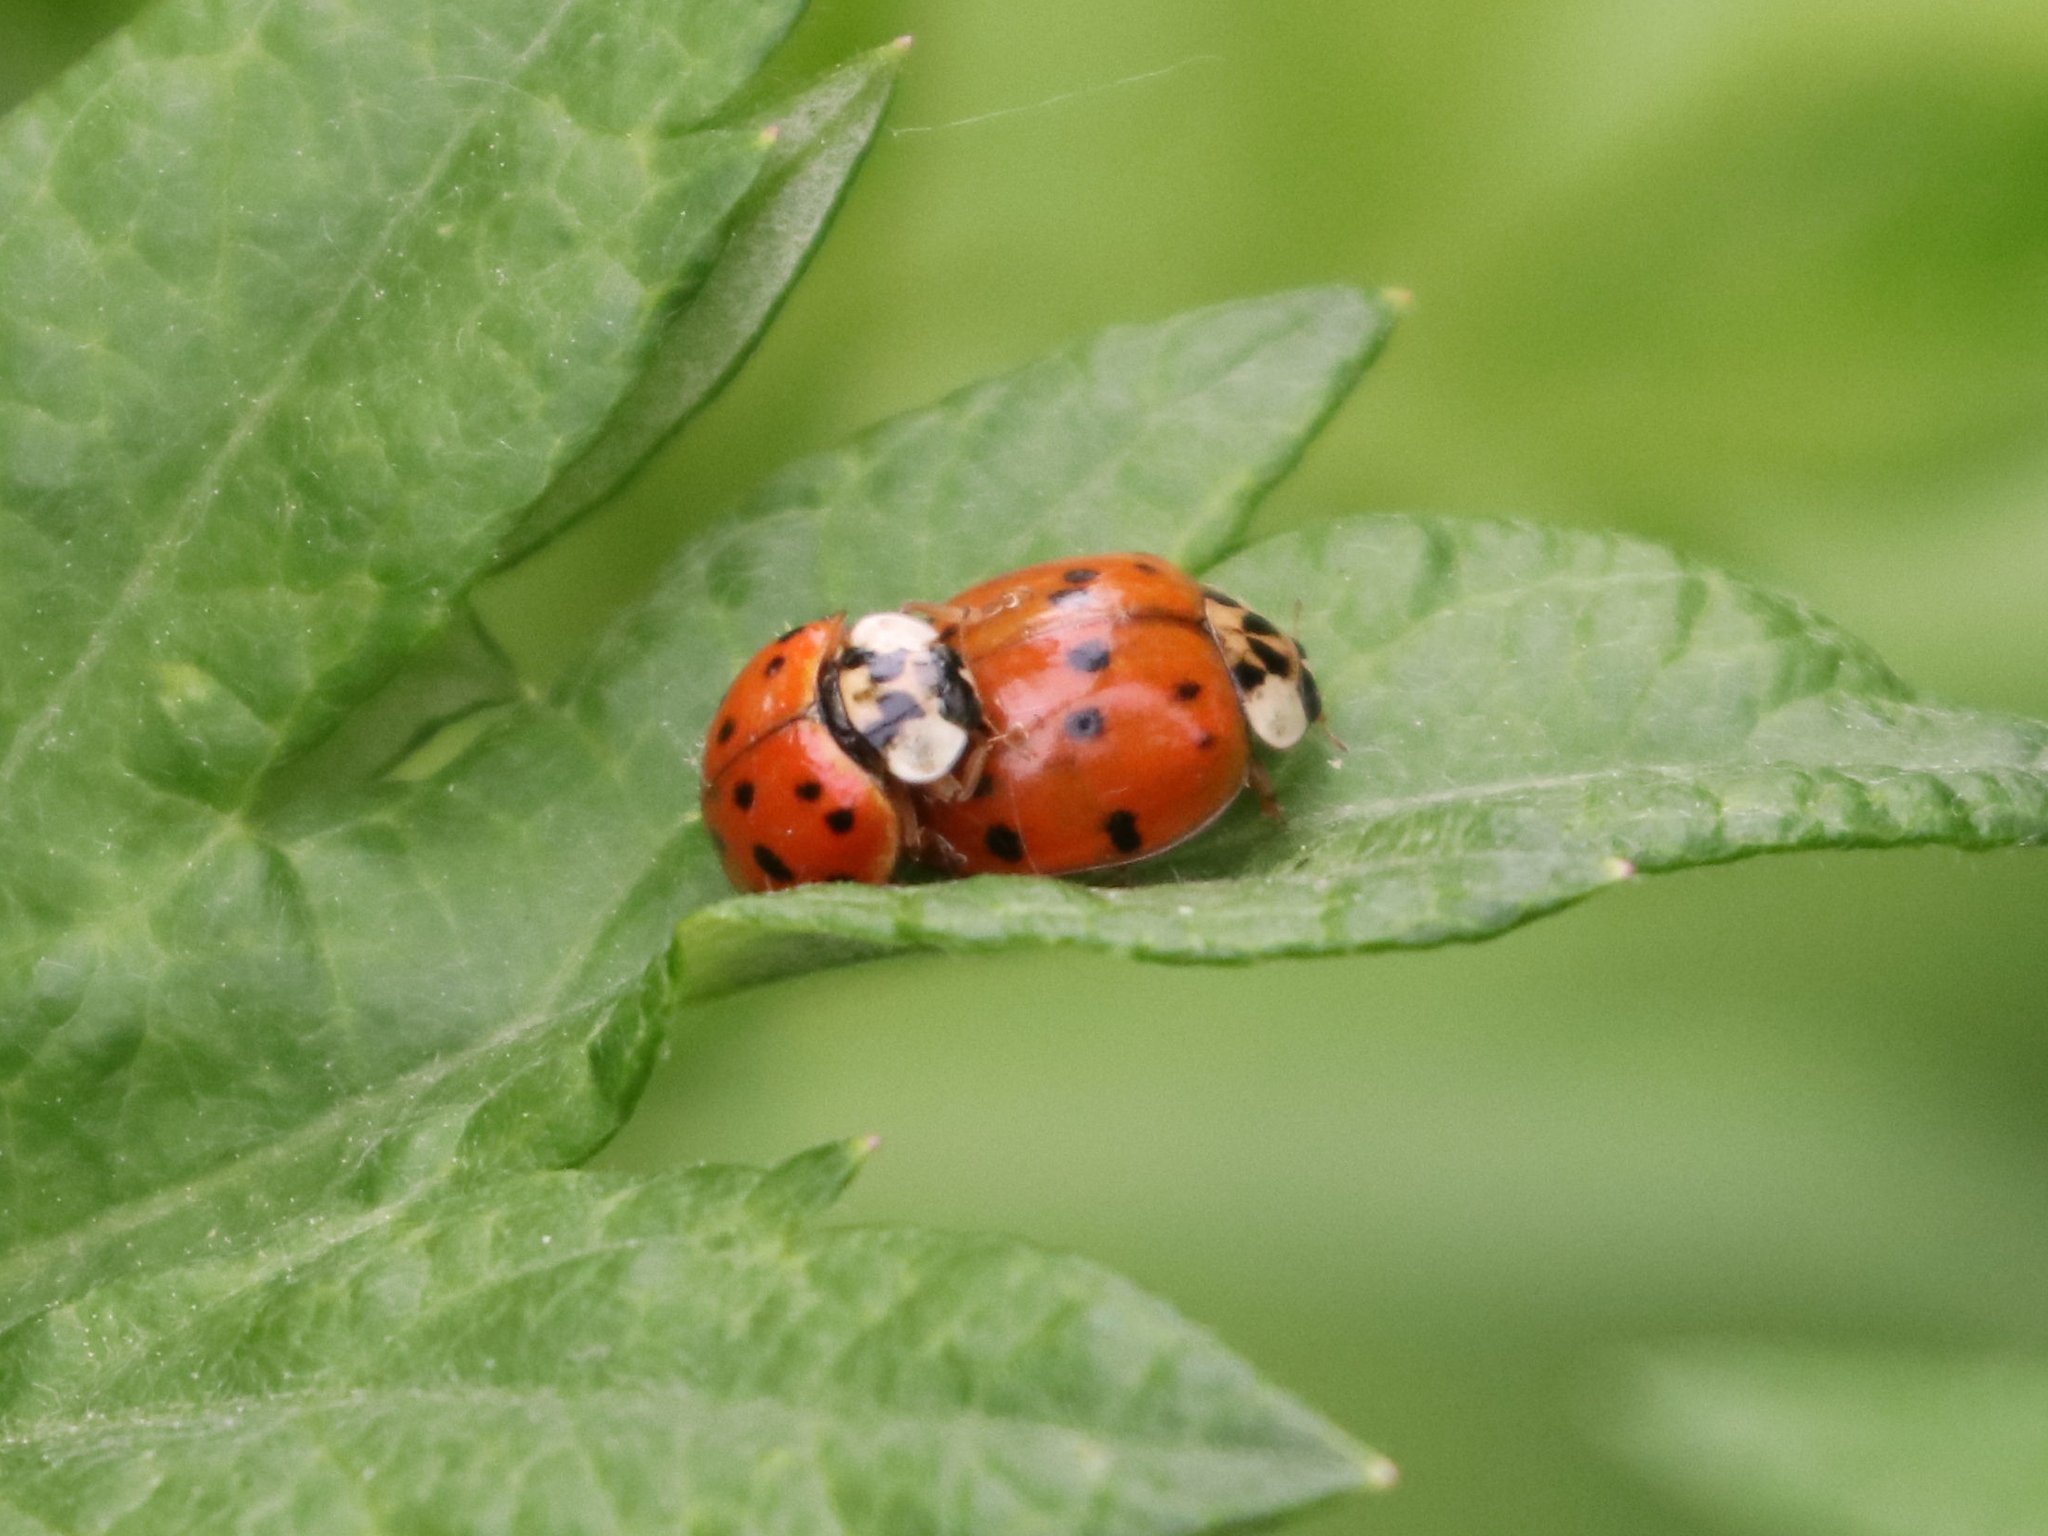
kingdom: Animalia
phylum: Arthropoda
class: Insecta
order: Coleoptera
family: Coccinellidae
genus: Harmonia
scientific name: Harmonia axyridis
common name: Harlequin ladybird
